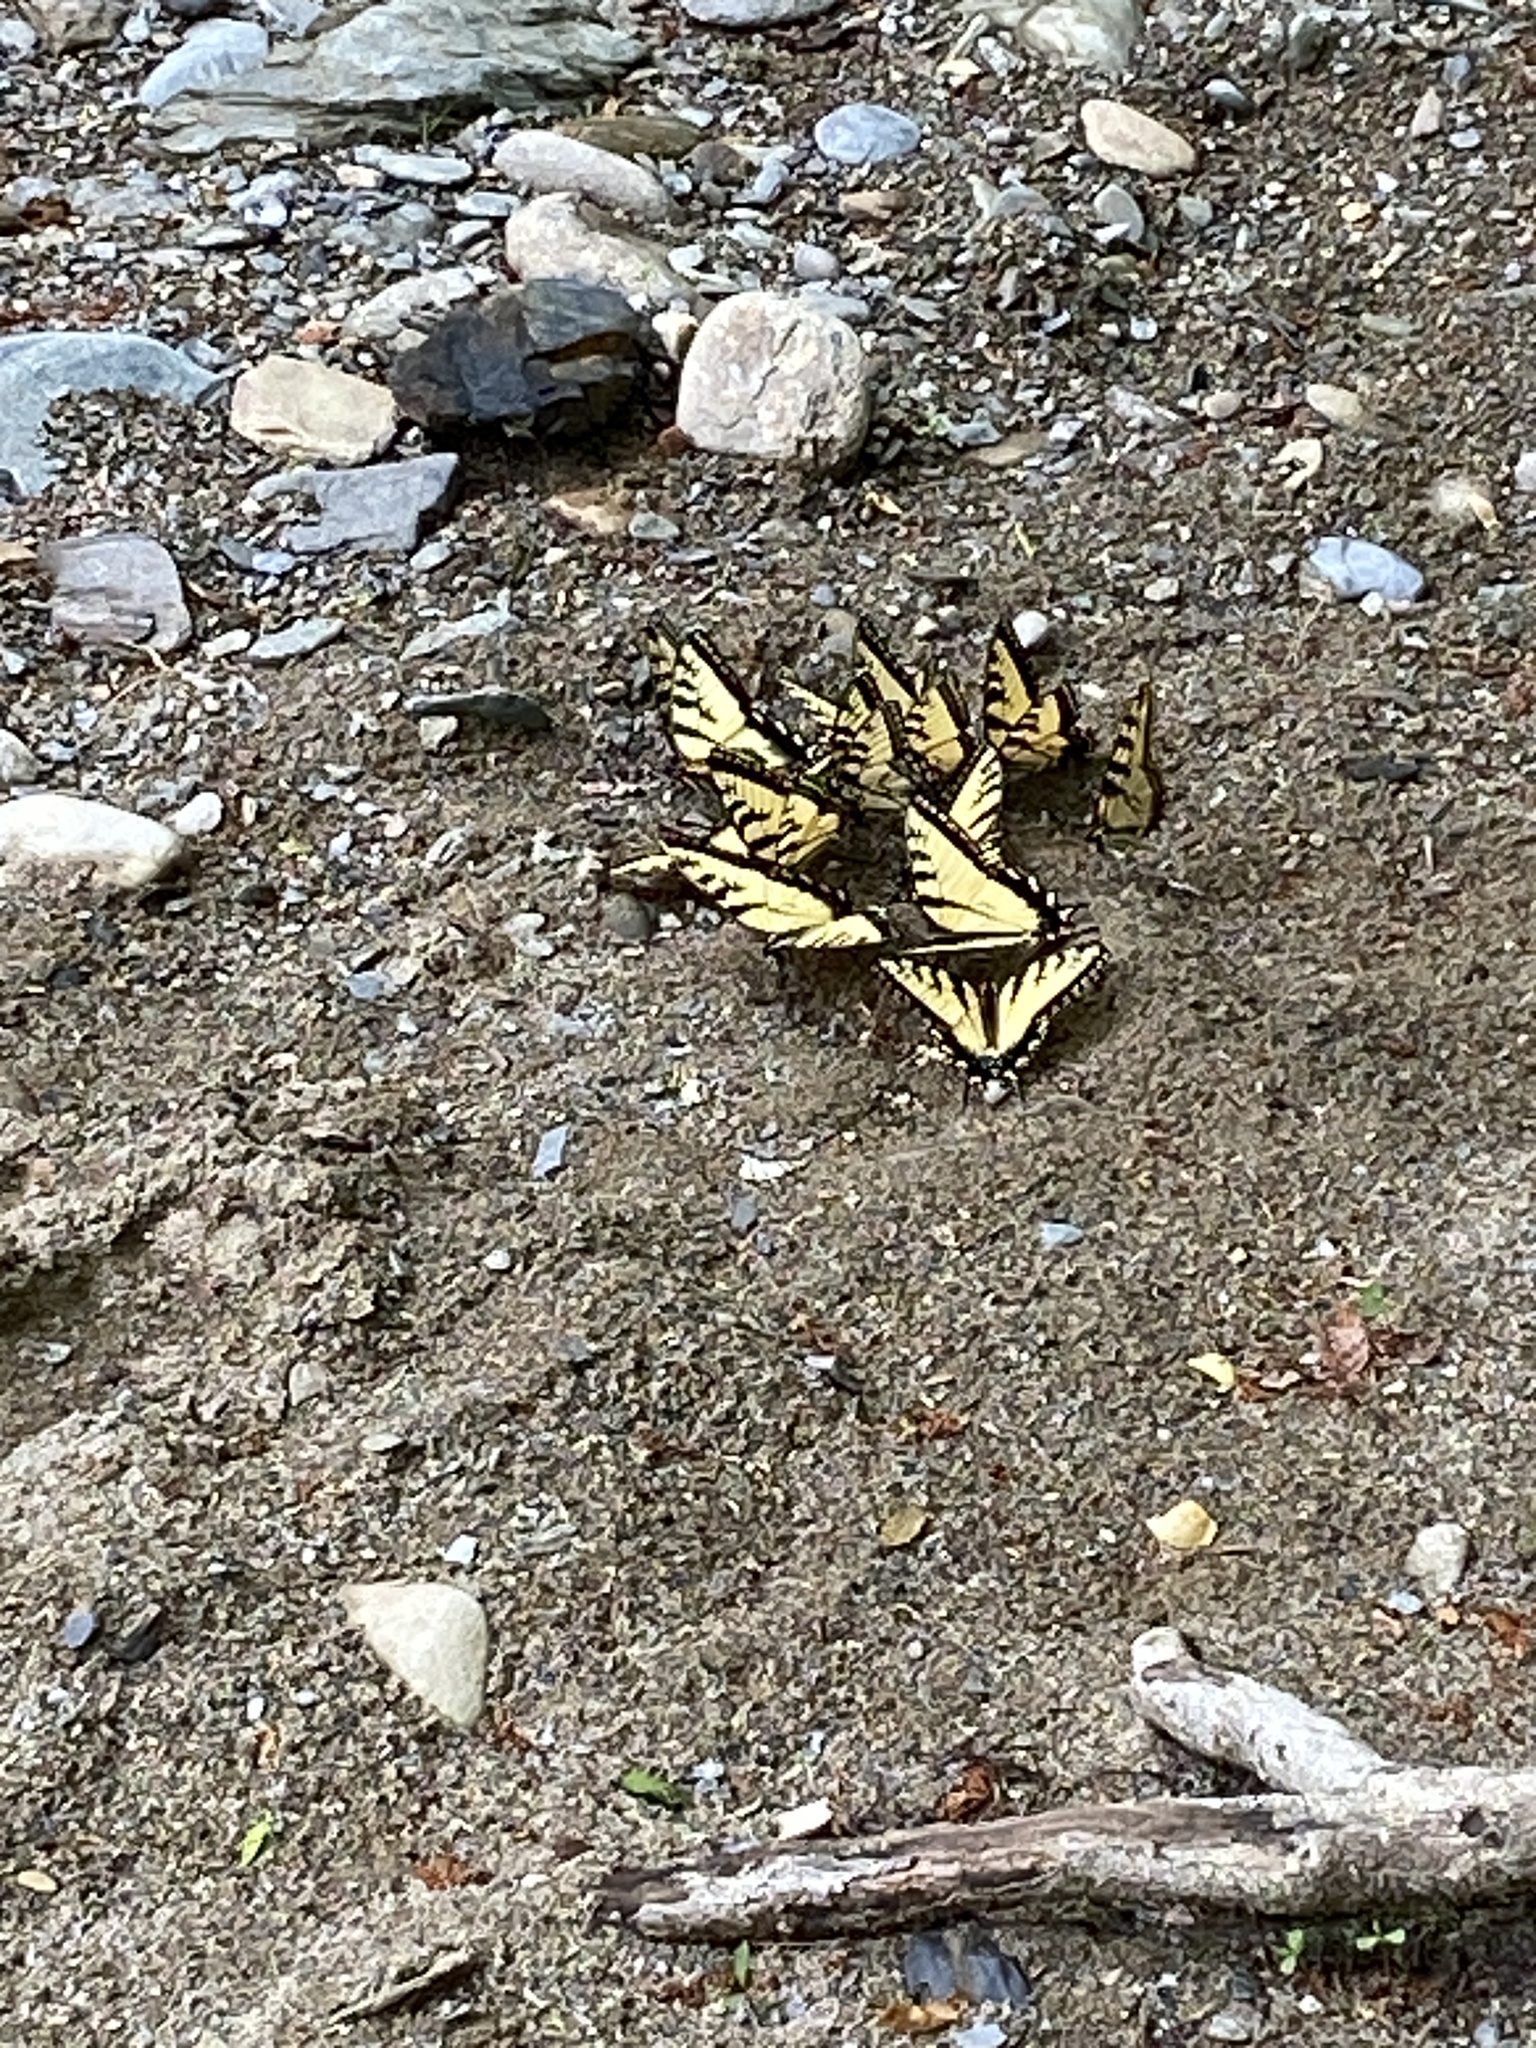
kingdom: Animalia
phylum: Arthropoda
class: Insecta
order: Lepidoptera
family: Papilionidae
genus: Papilio
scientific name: Papilio glaucus
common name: Tiger swallowtail
